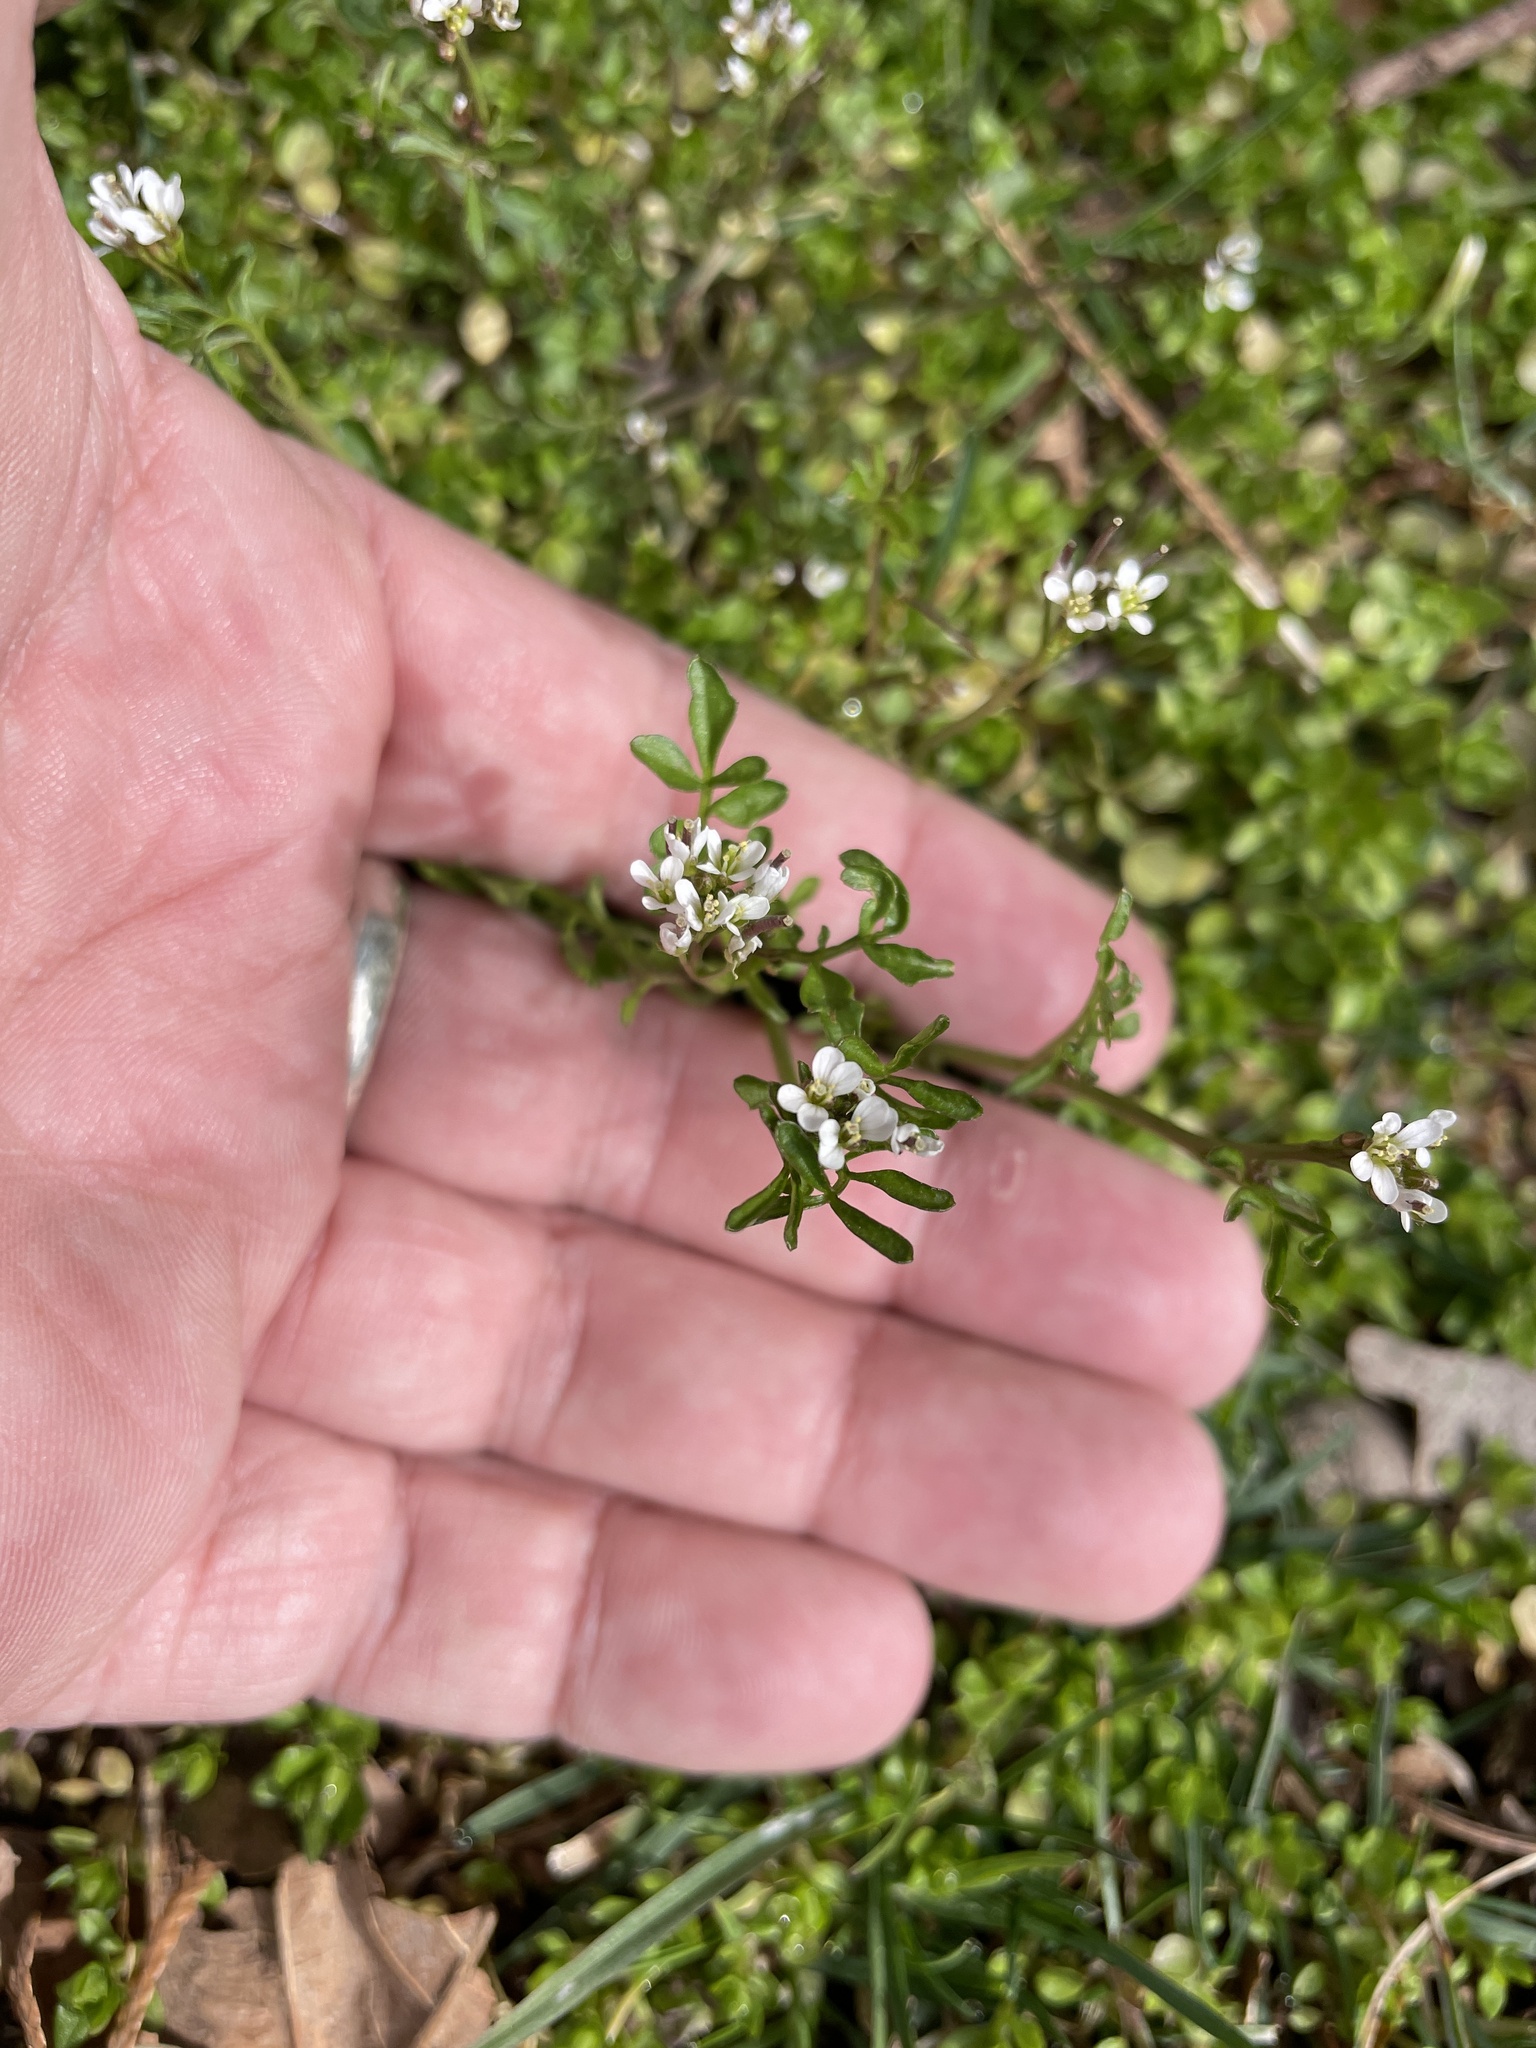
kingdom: Plantae
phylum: Tracheophyta
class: Magnoliopsida
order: Brassicales
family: Brassicaceae
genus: Cardamine
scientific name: Cardamine hirsuta
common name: Hairy bittercress
